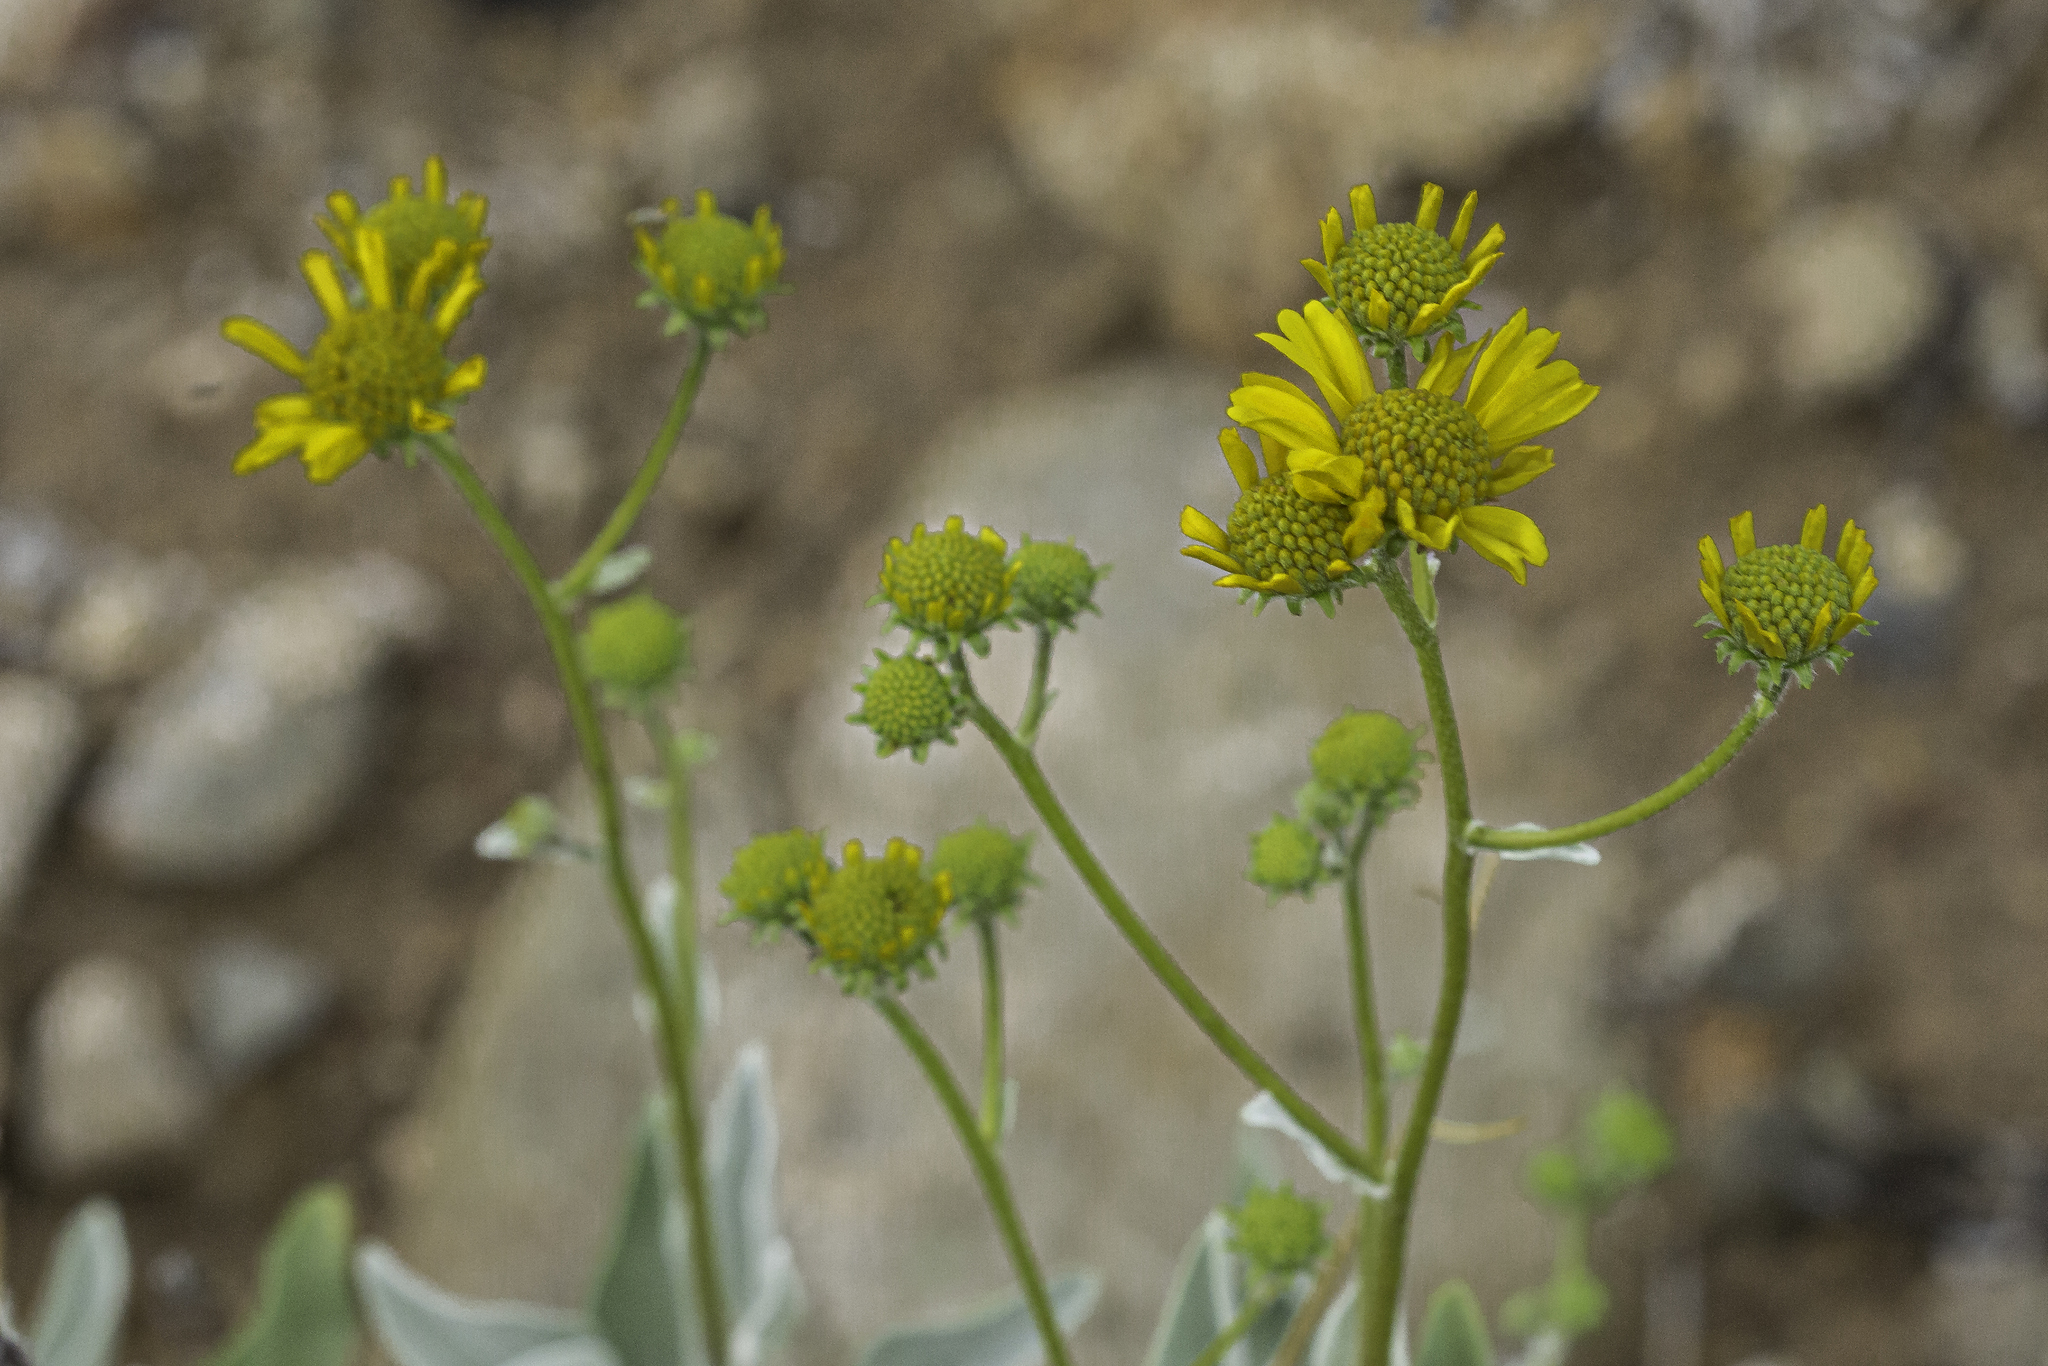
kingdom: Plantae
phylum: Tracheophyta
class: Magnoliopsida
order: Asterales
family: Asteraceae
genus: Encelia
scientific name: Encelia farinosa
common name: Brittlebush
